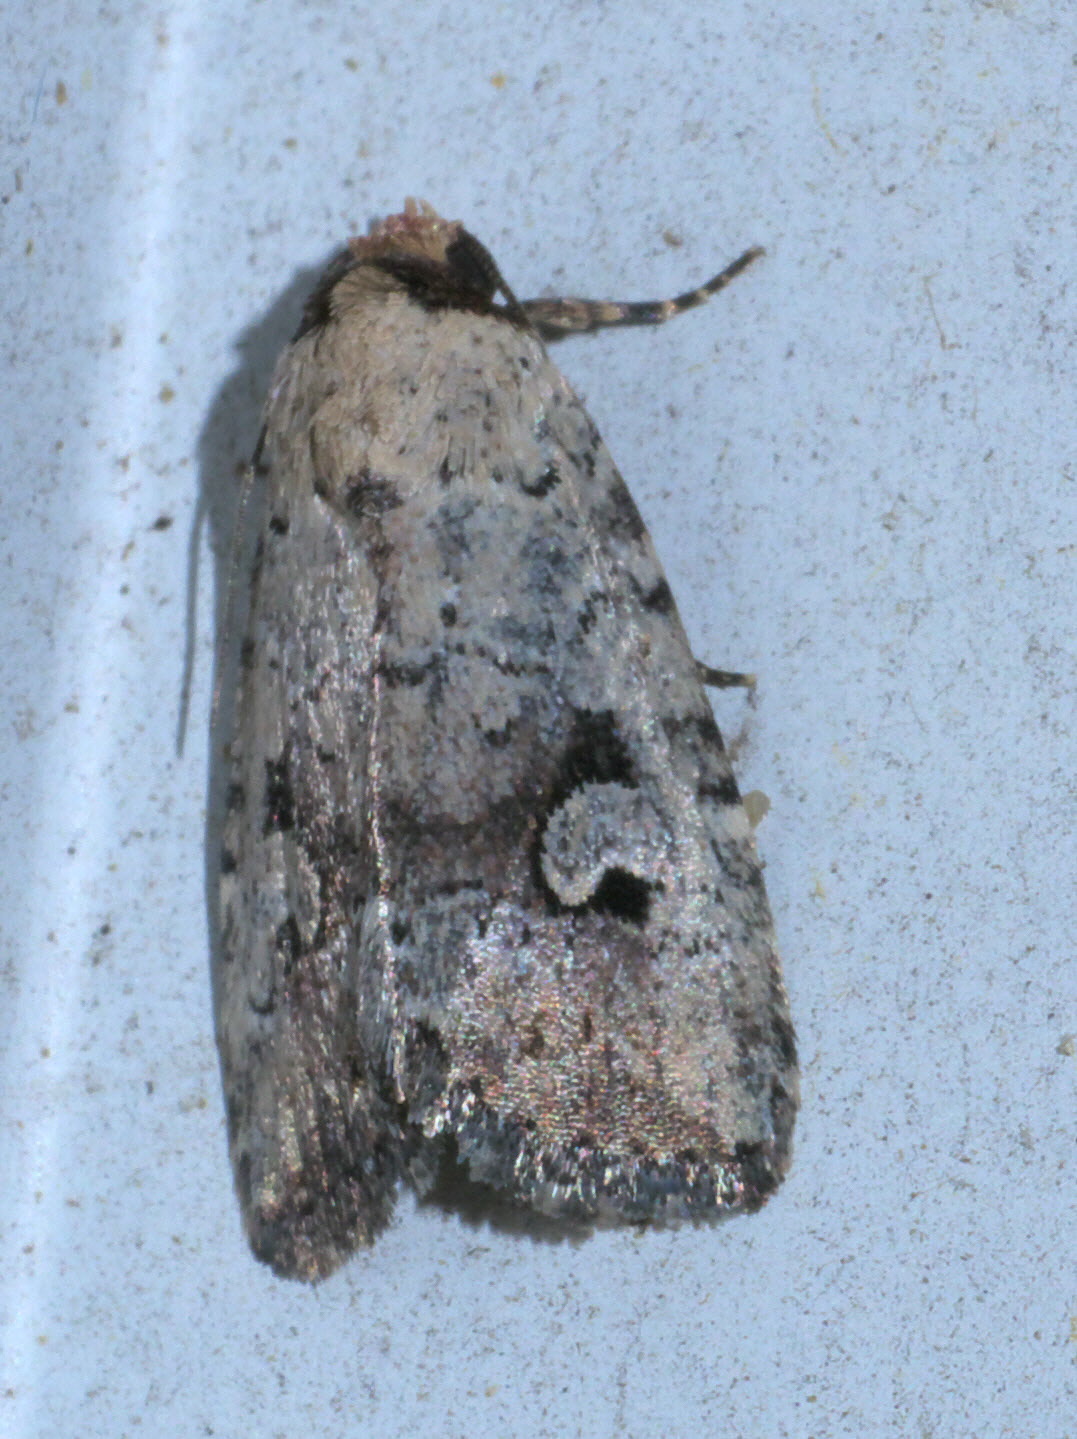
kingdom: Animalia
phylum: Arthropoda
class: Insecta
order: Lepidoptera
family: Noctuidae
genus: Elaphria
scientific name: Elaphria festivoides
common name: Festive midget
